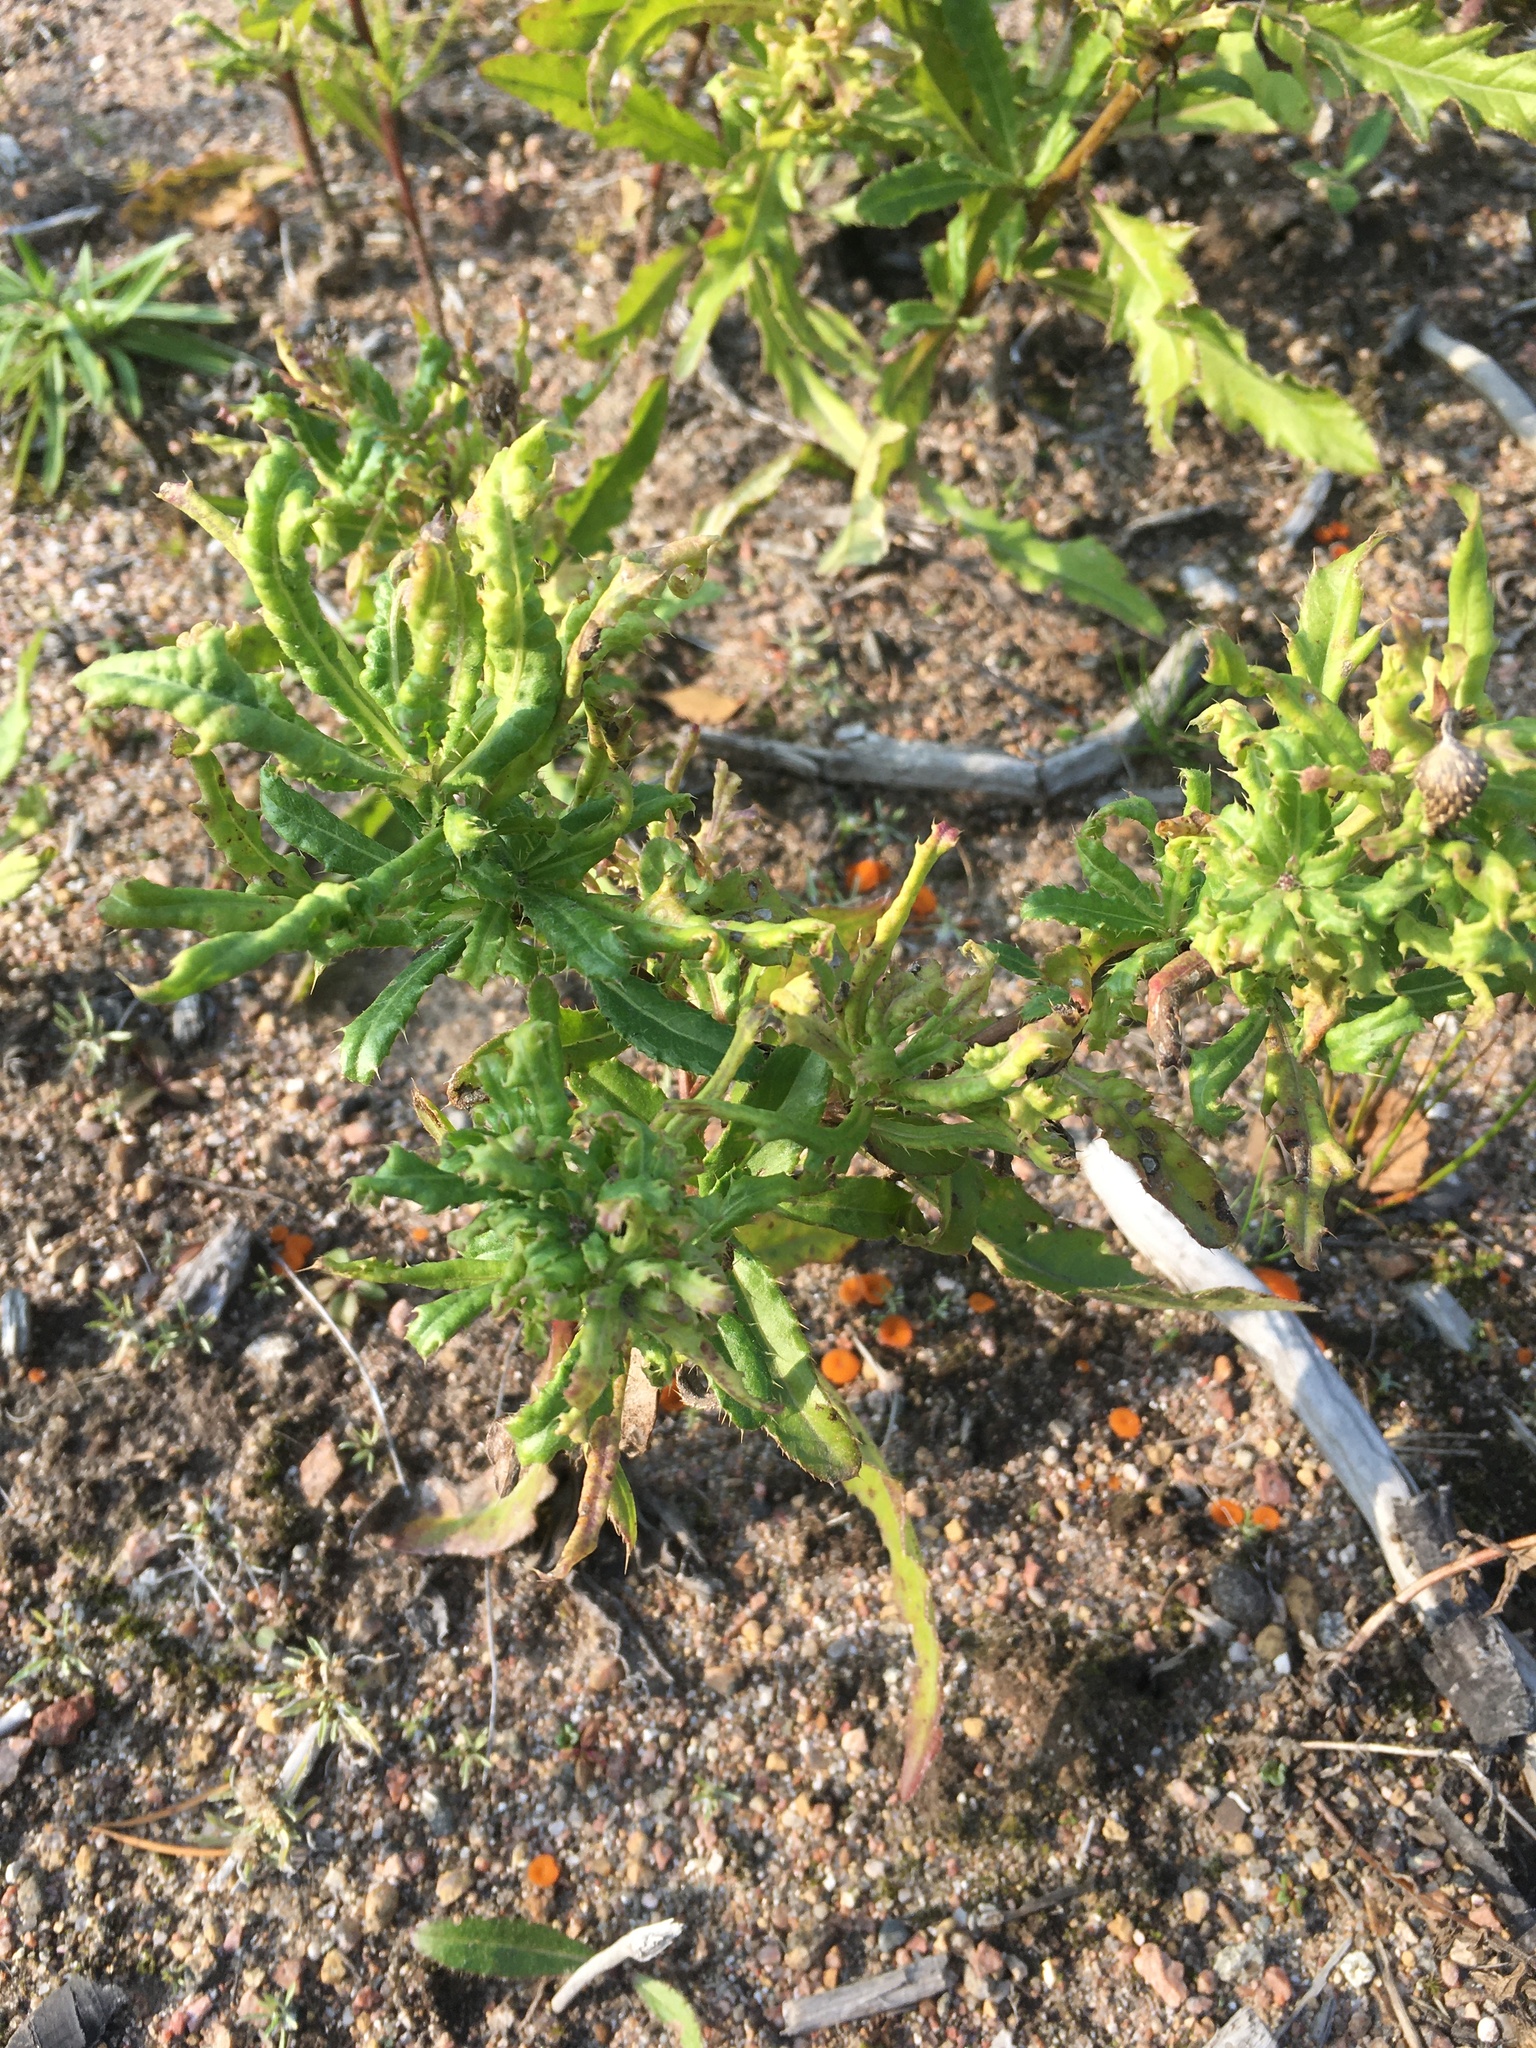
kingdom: Plantae
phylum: Tracheophyta
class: Magnoliopsida
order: Asterales
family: Asteraceae
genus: Cirsium
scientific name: Cirsium arvense
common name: Creeping thistle
